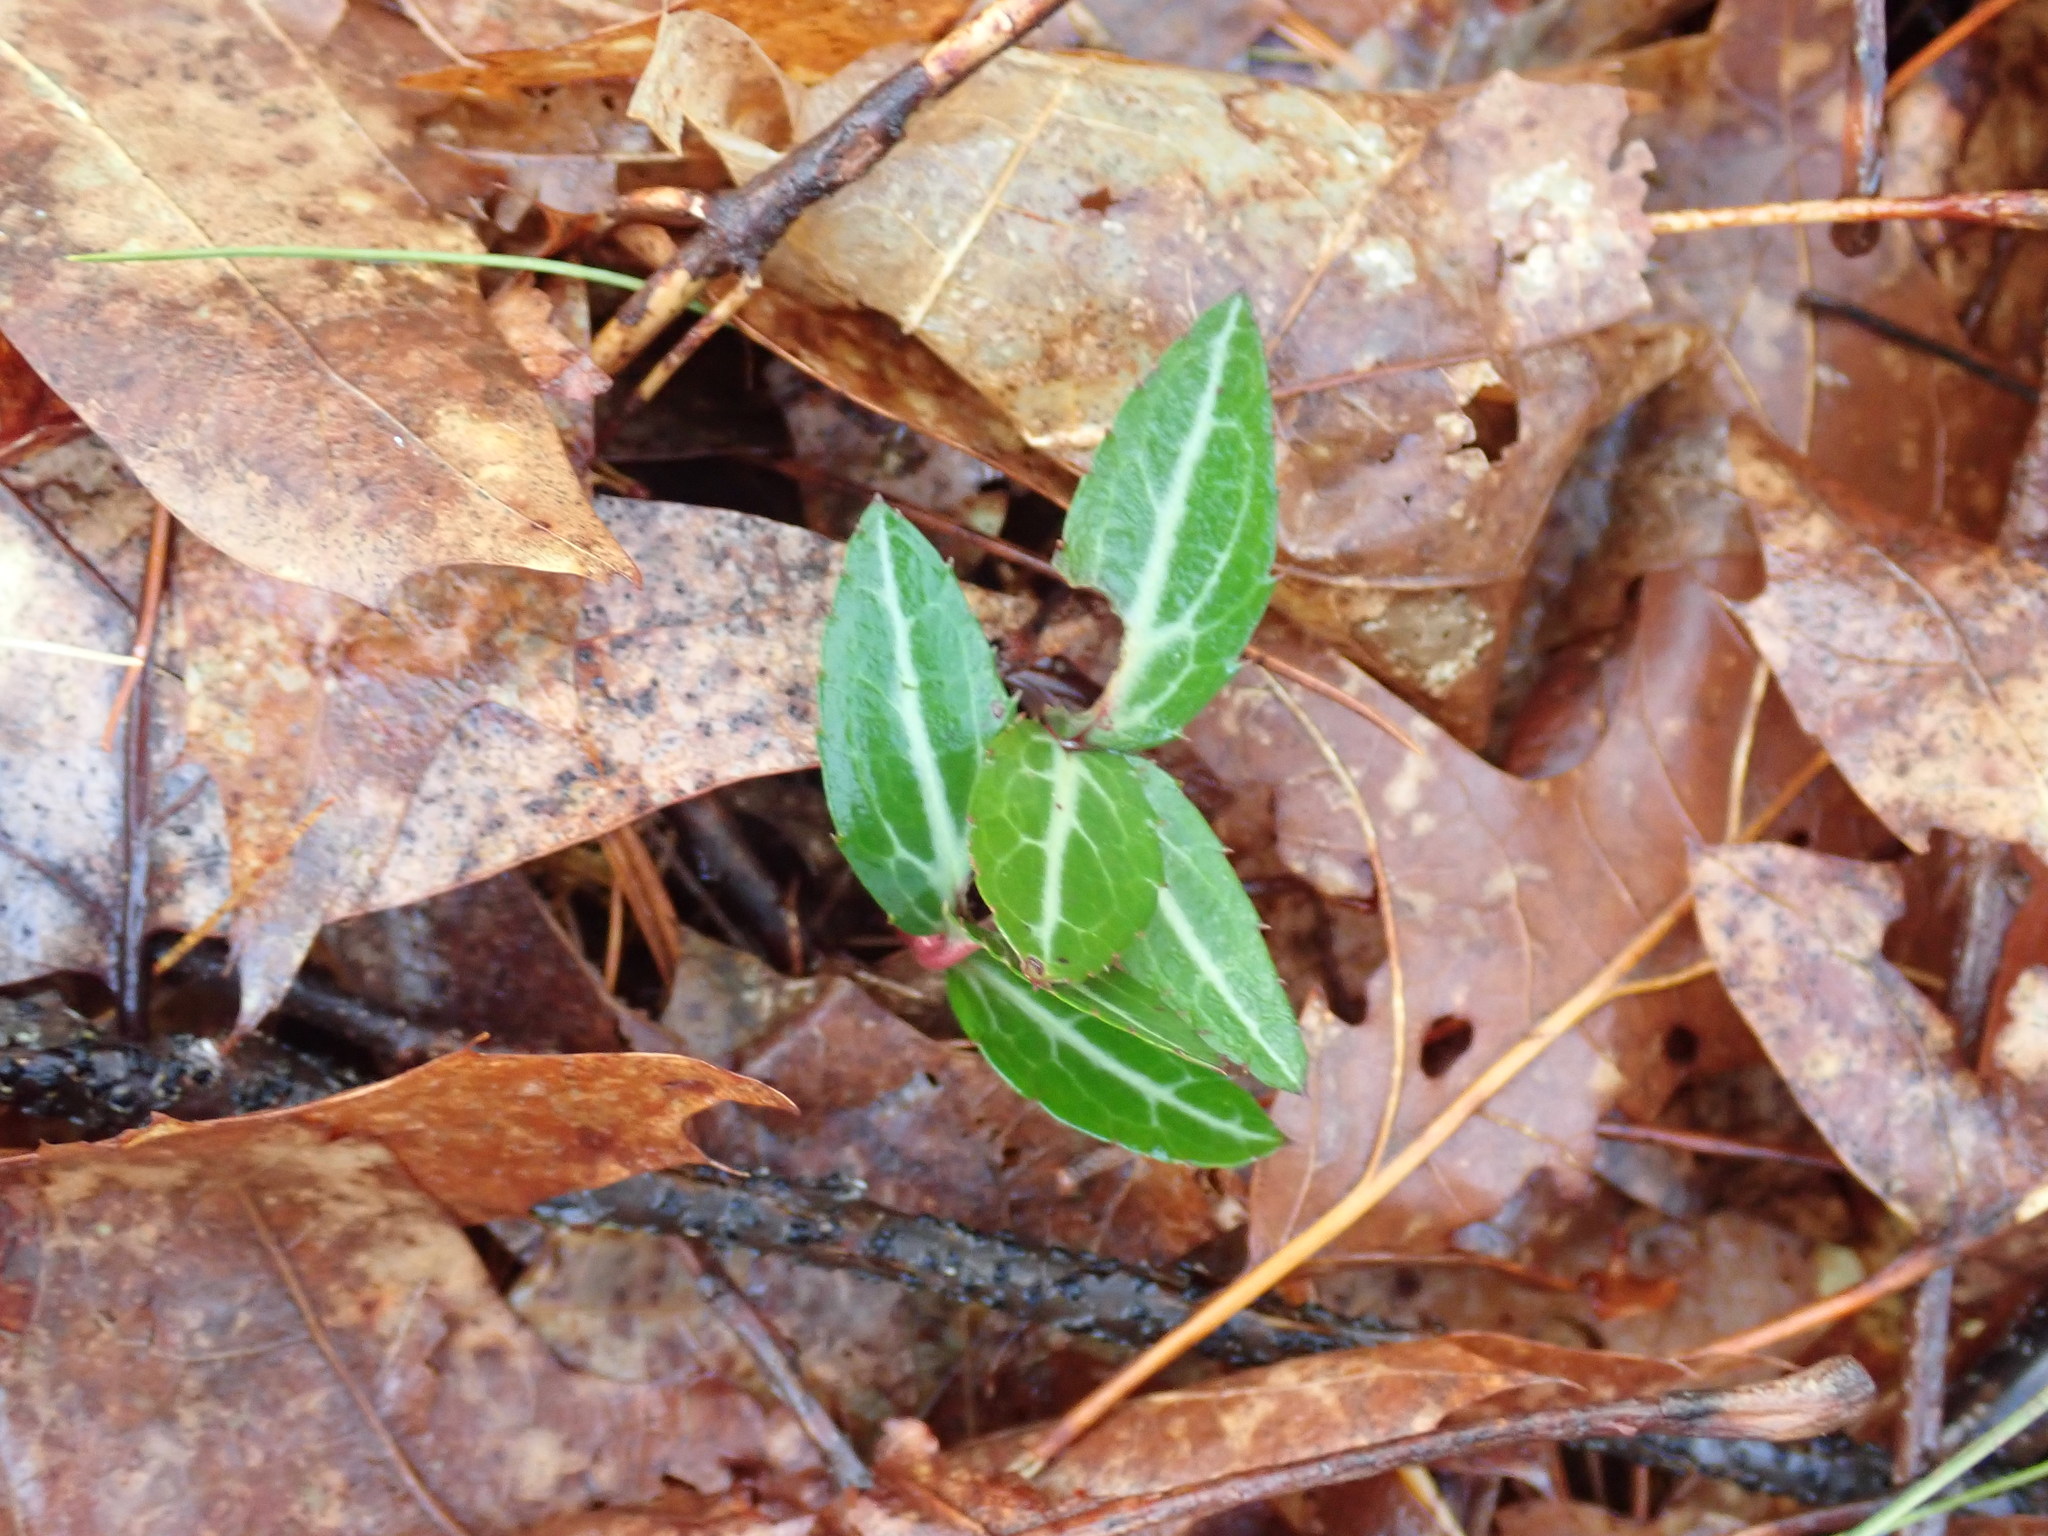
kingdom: Plantae
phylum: Tracheophyta
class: Magnoliopsida
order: Ericales
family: Ericaceae
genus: Chimaphila
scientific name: Chimaphila maculata
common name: Spotted pipsissewa
